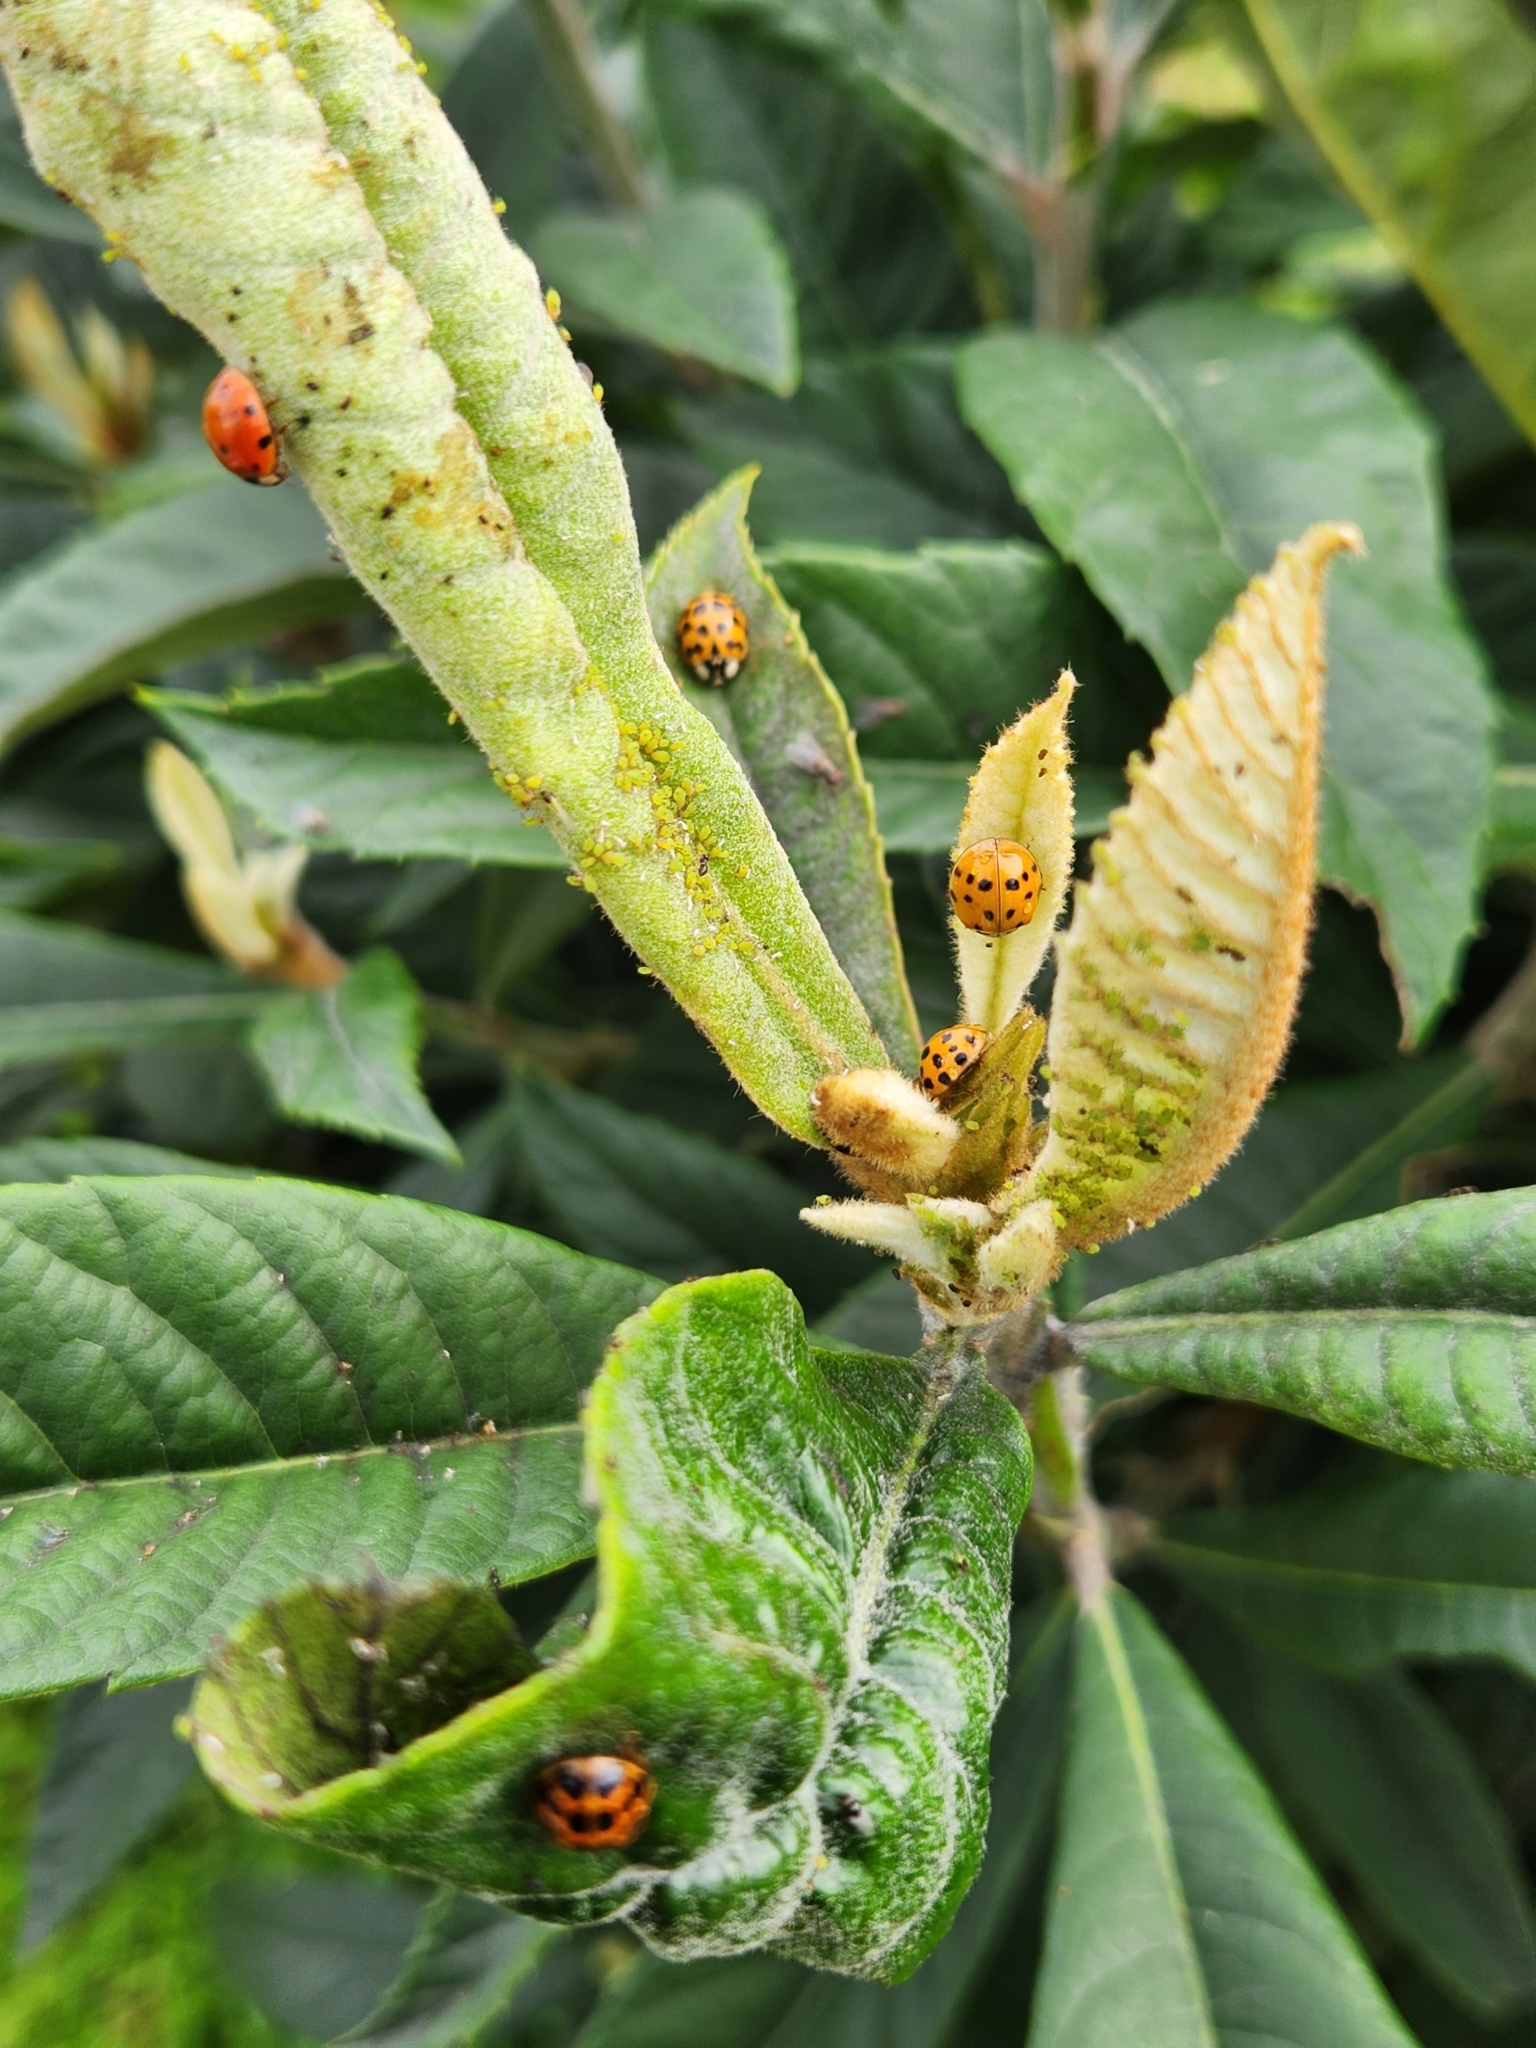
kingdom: Animalia
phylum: Arthropoda
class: Insecta
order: Coleoptera
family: Coccinellidae
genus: Harmonia
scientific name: Harmonia axyridis
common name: Harlequin ladybird
